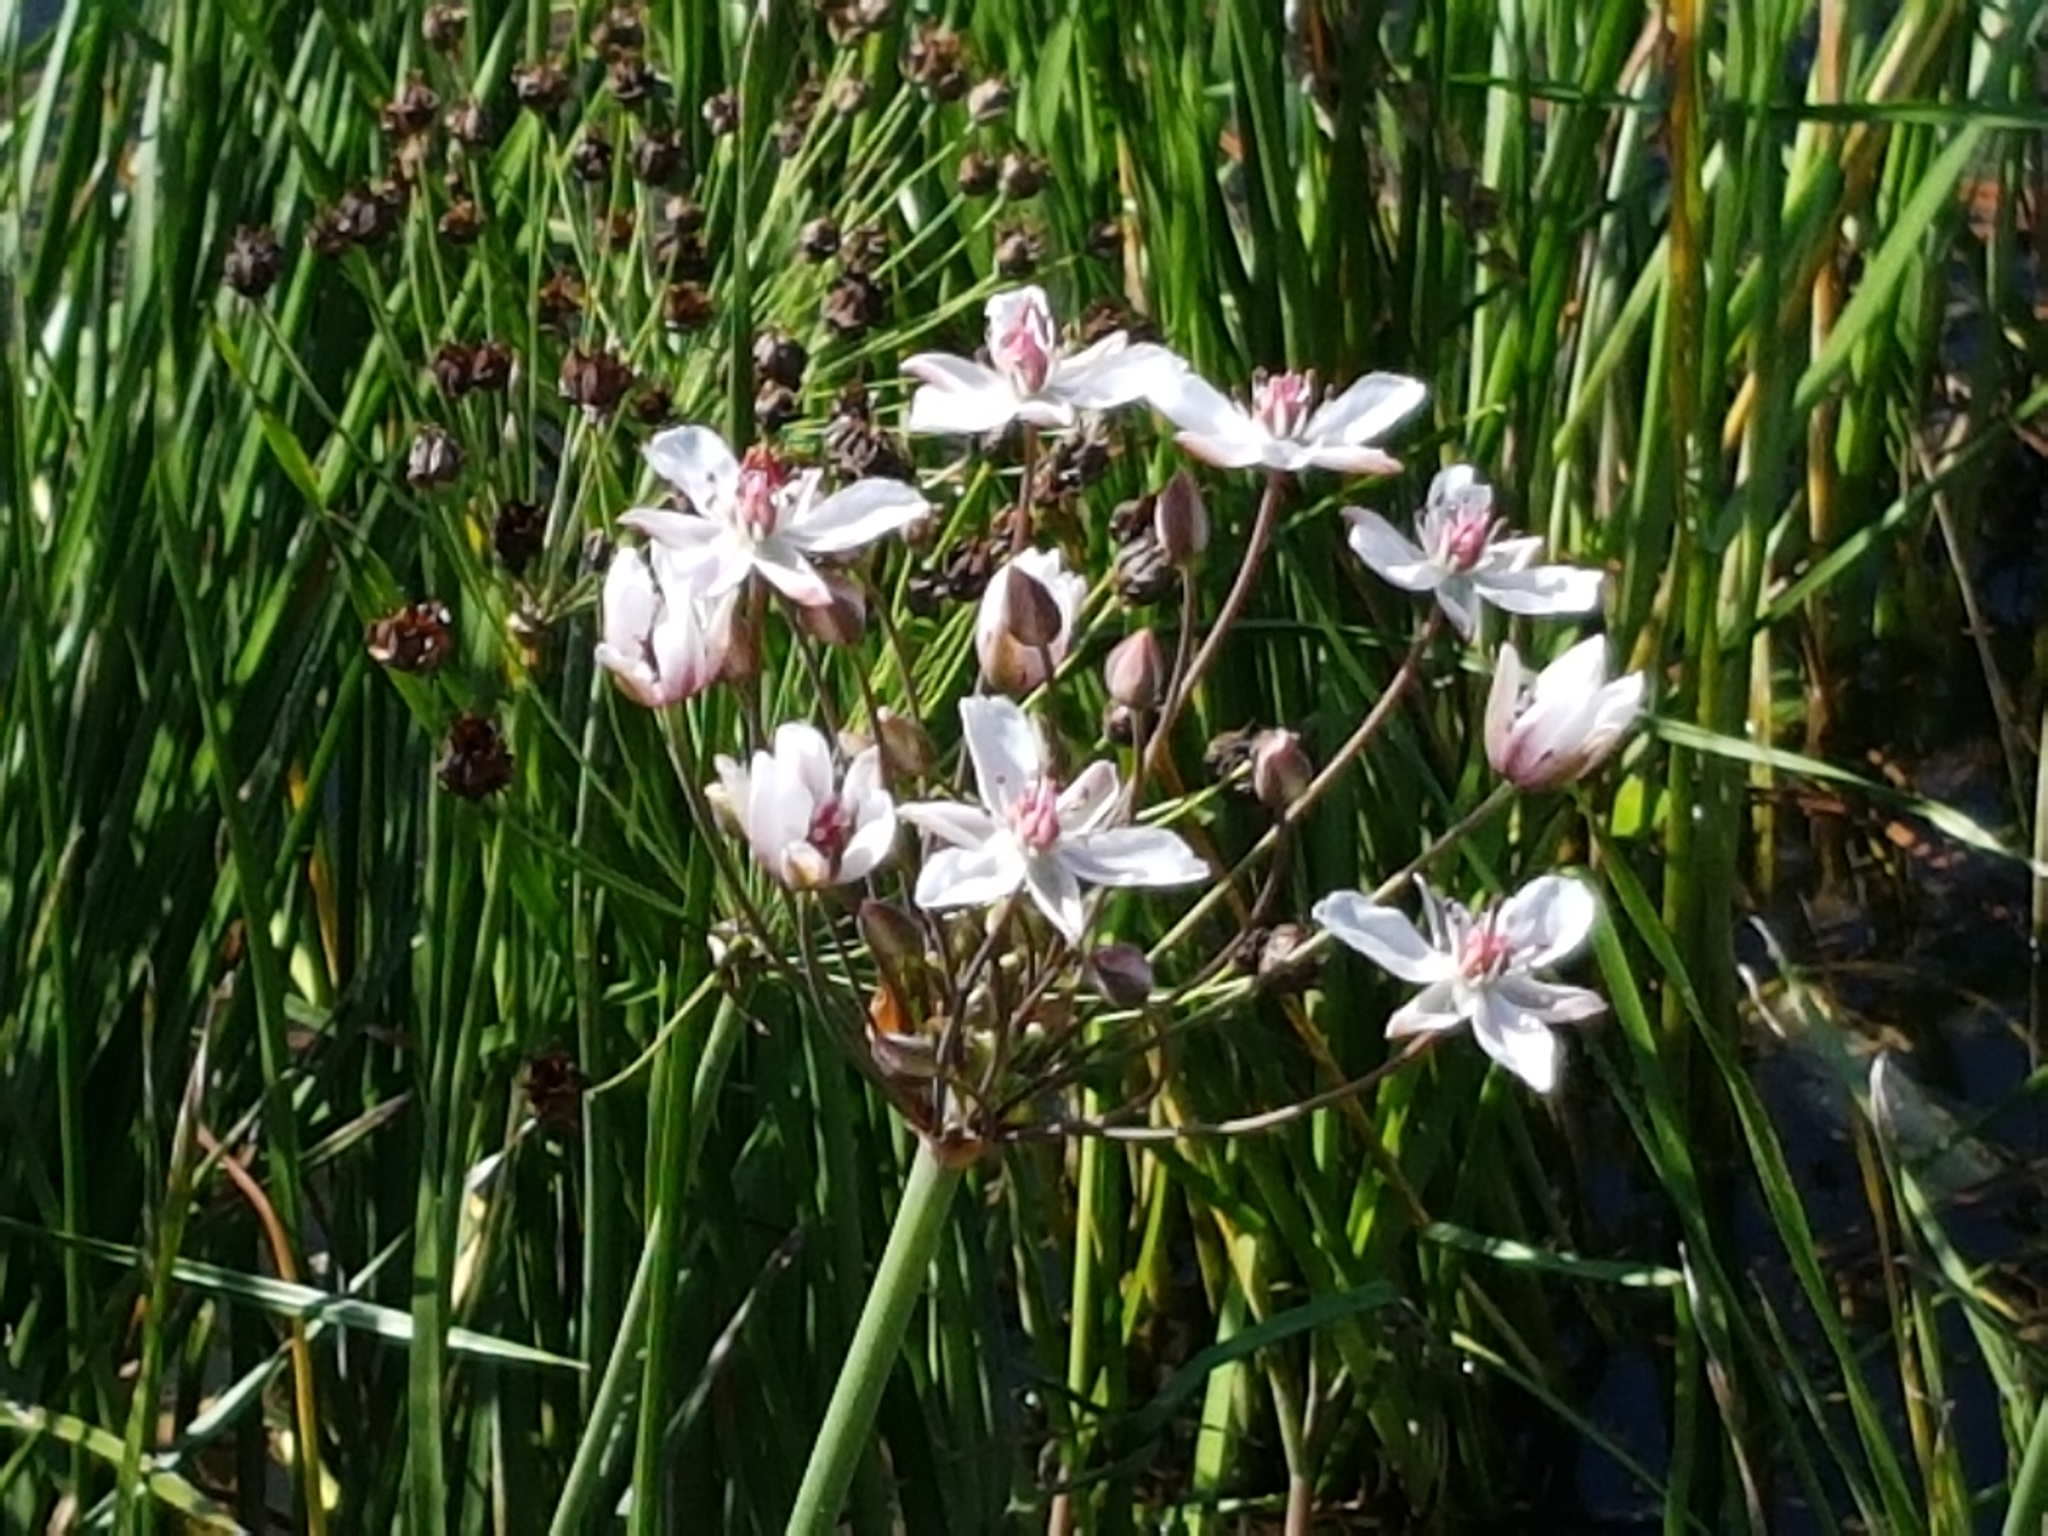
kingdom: Plantae
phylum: Tracheophyta
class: Liliopsida
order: Alismatales
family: Butomaceae
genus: Butomus
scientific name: Butomus umbellatus
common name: Flowering-rush
